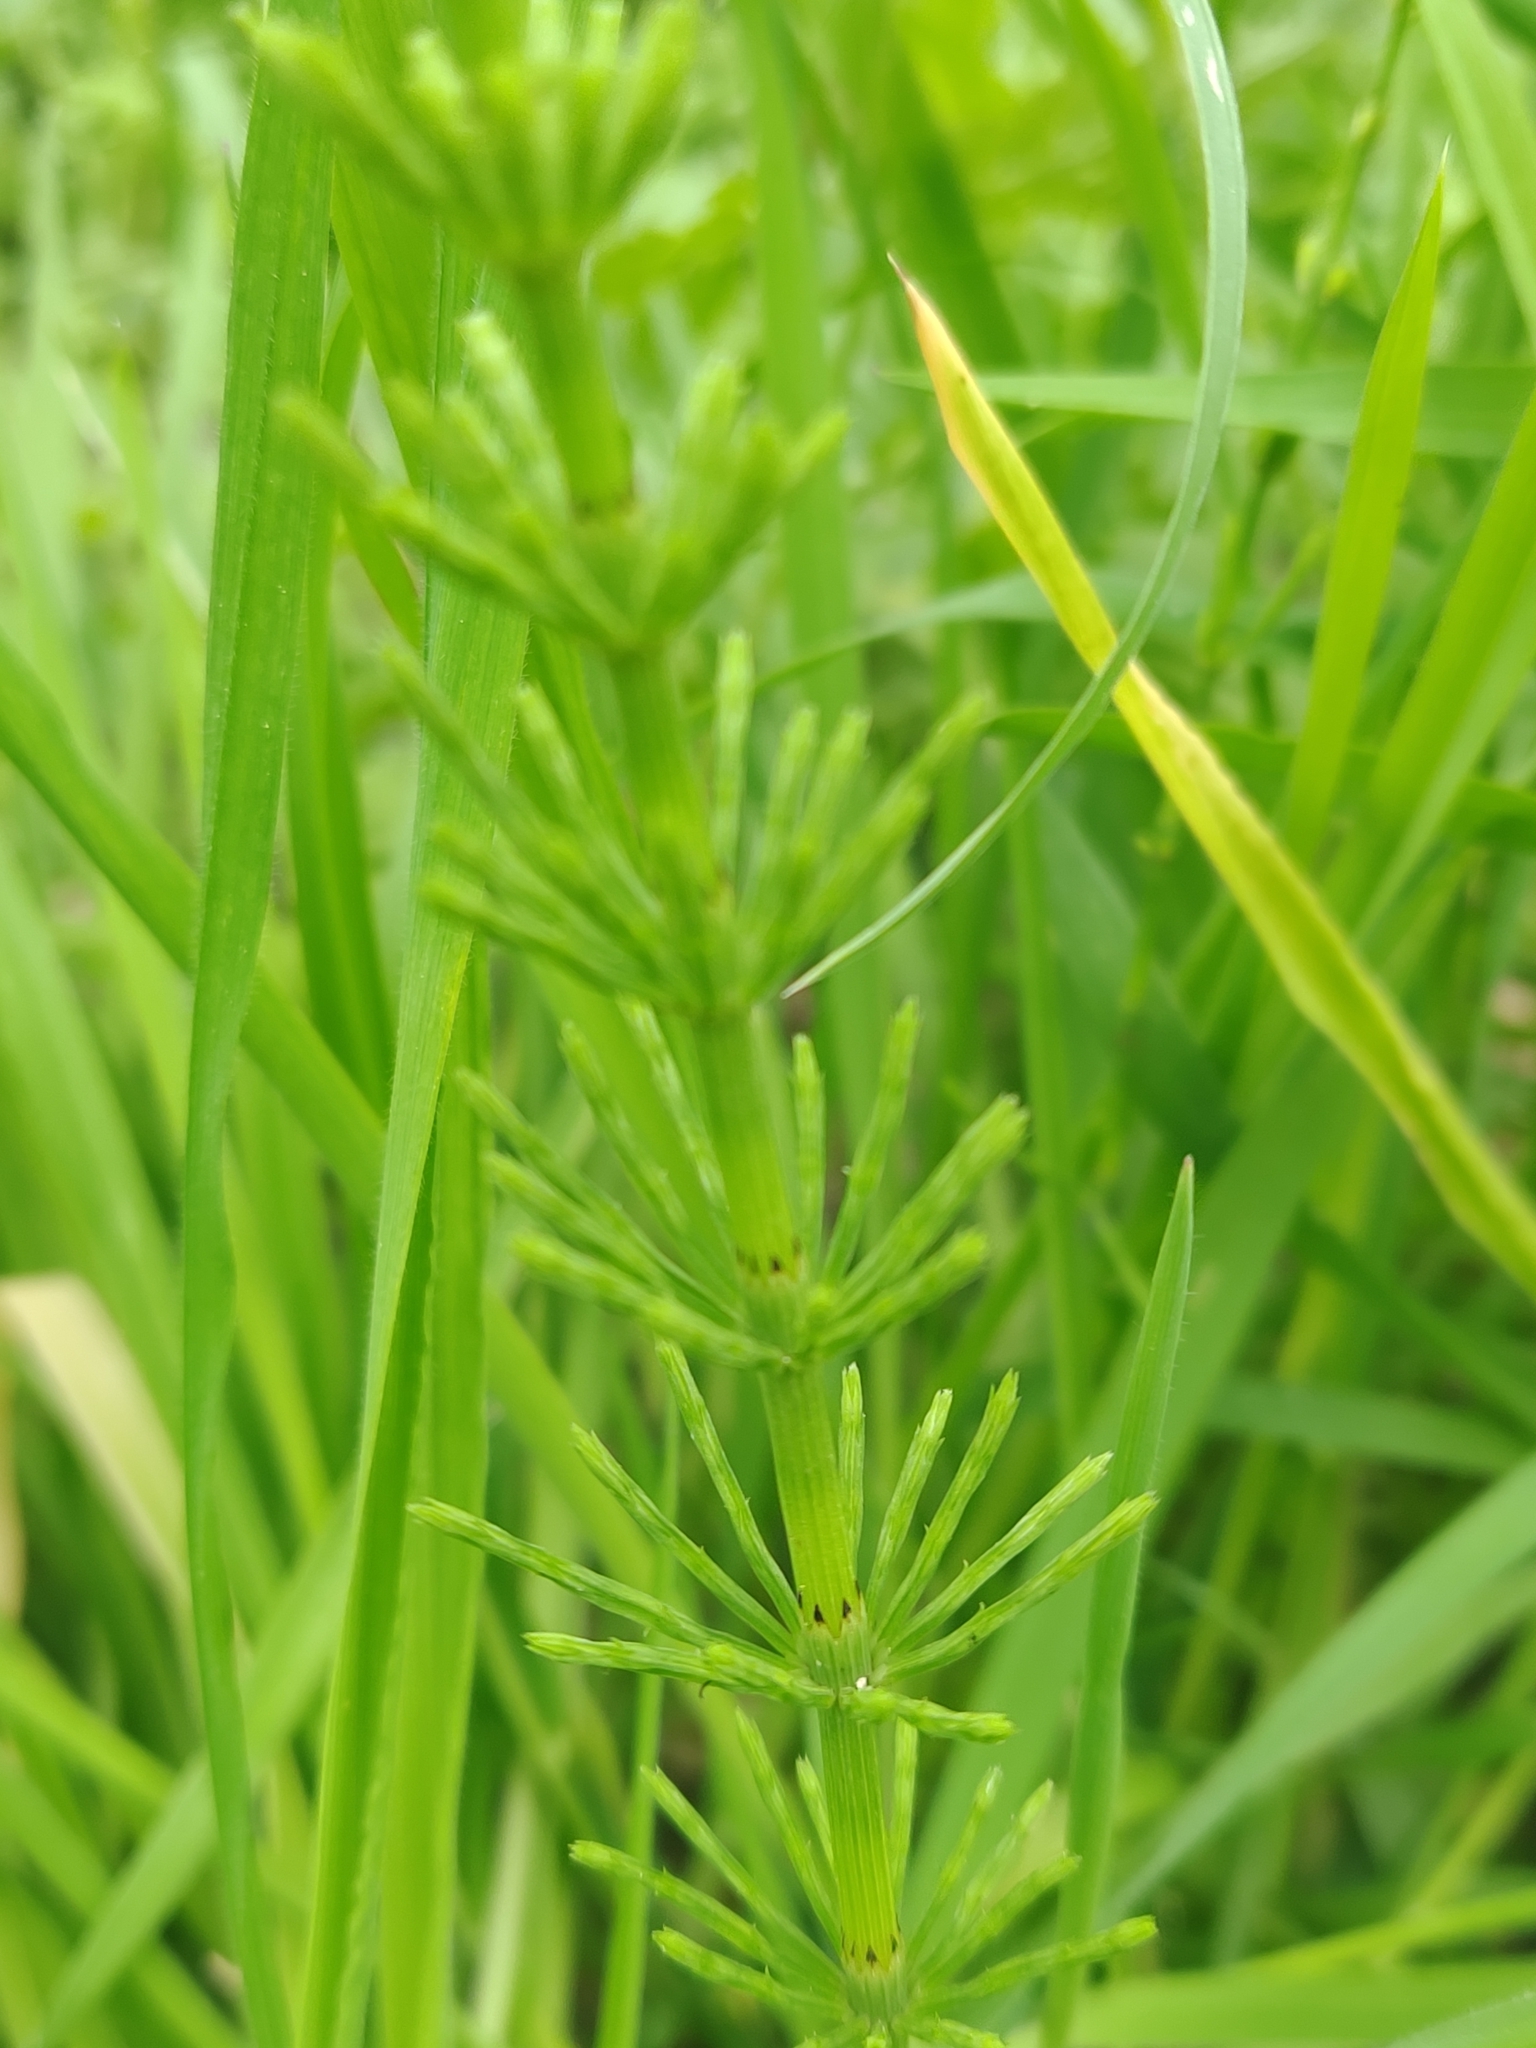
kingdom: Plantae
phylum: Tracheophyta
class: Polypodiopsida
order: Equisetales
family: Equisetaceae
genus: Equisetum
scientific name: Equisetum arvense
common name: Field horsetail
